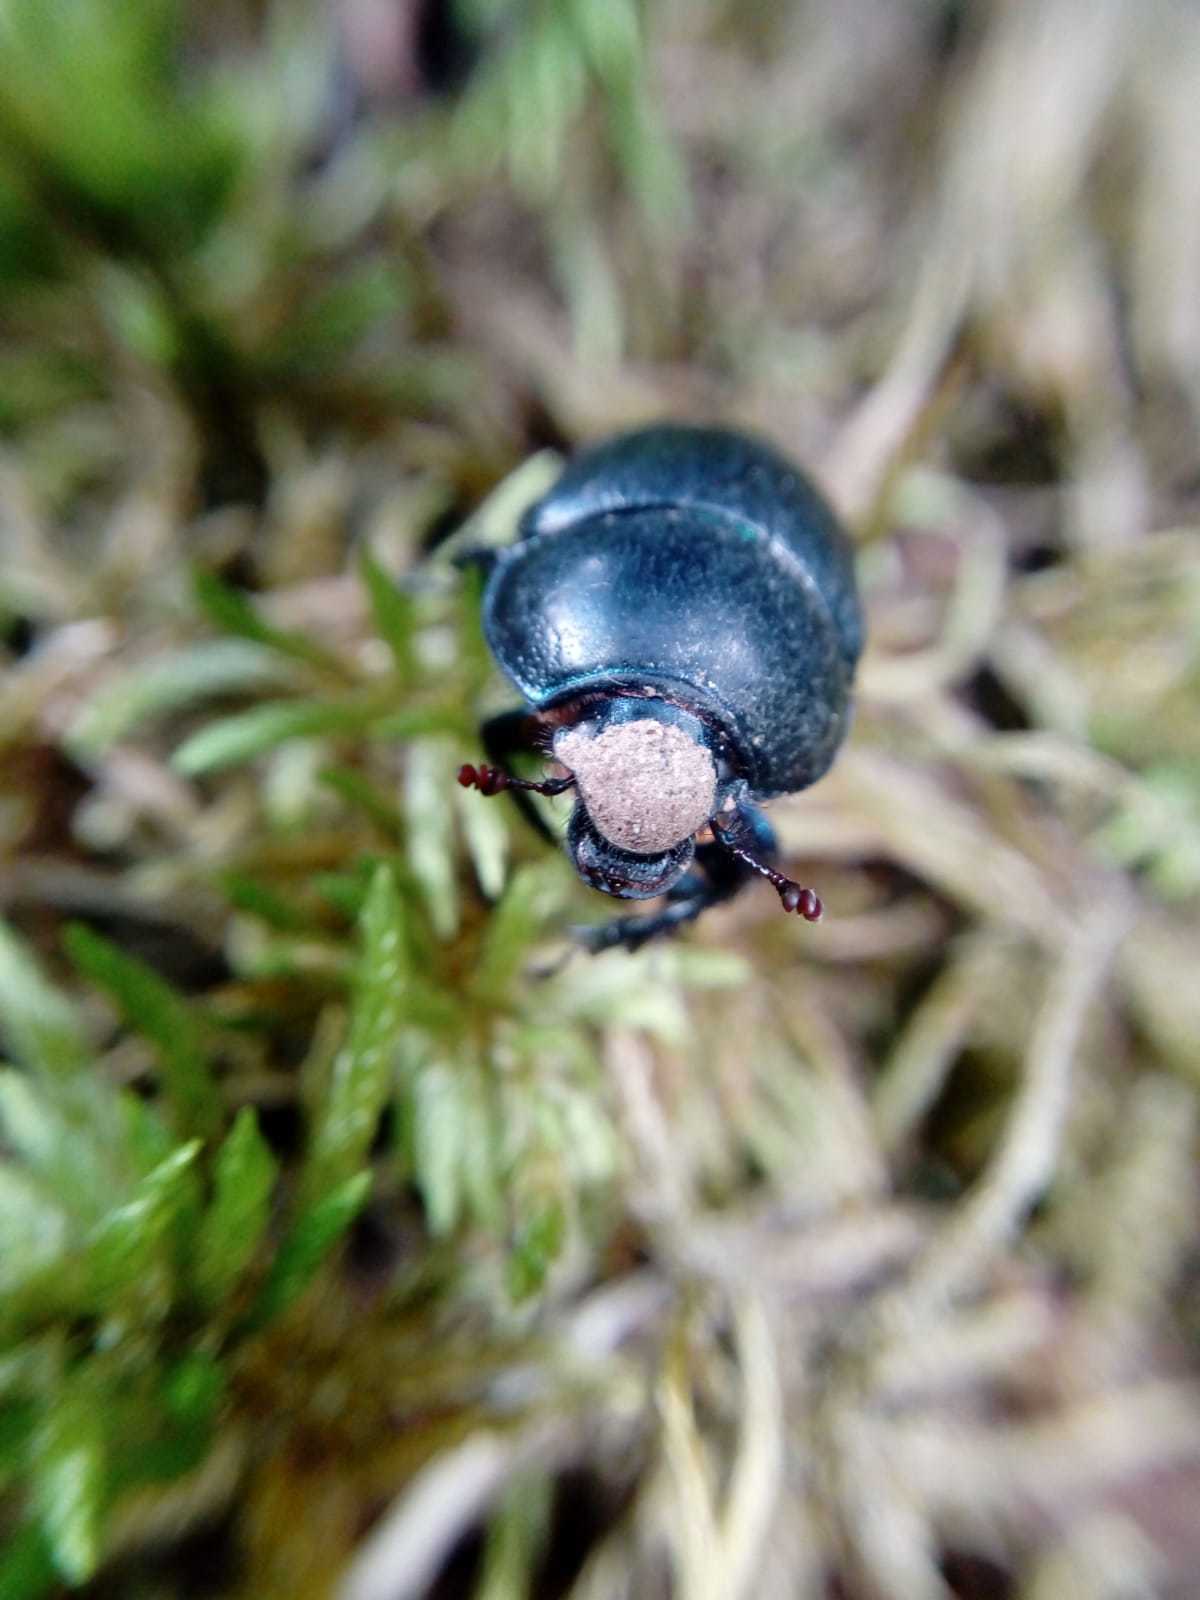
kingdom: Animalia
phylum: Arthropoda
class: Insecta
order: Coleoptera
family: Geotrupidae
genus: Anoplotrupes
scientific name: Anoplotrupes stercorosus
